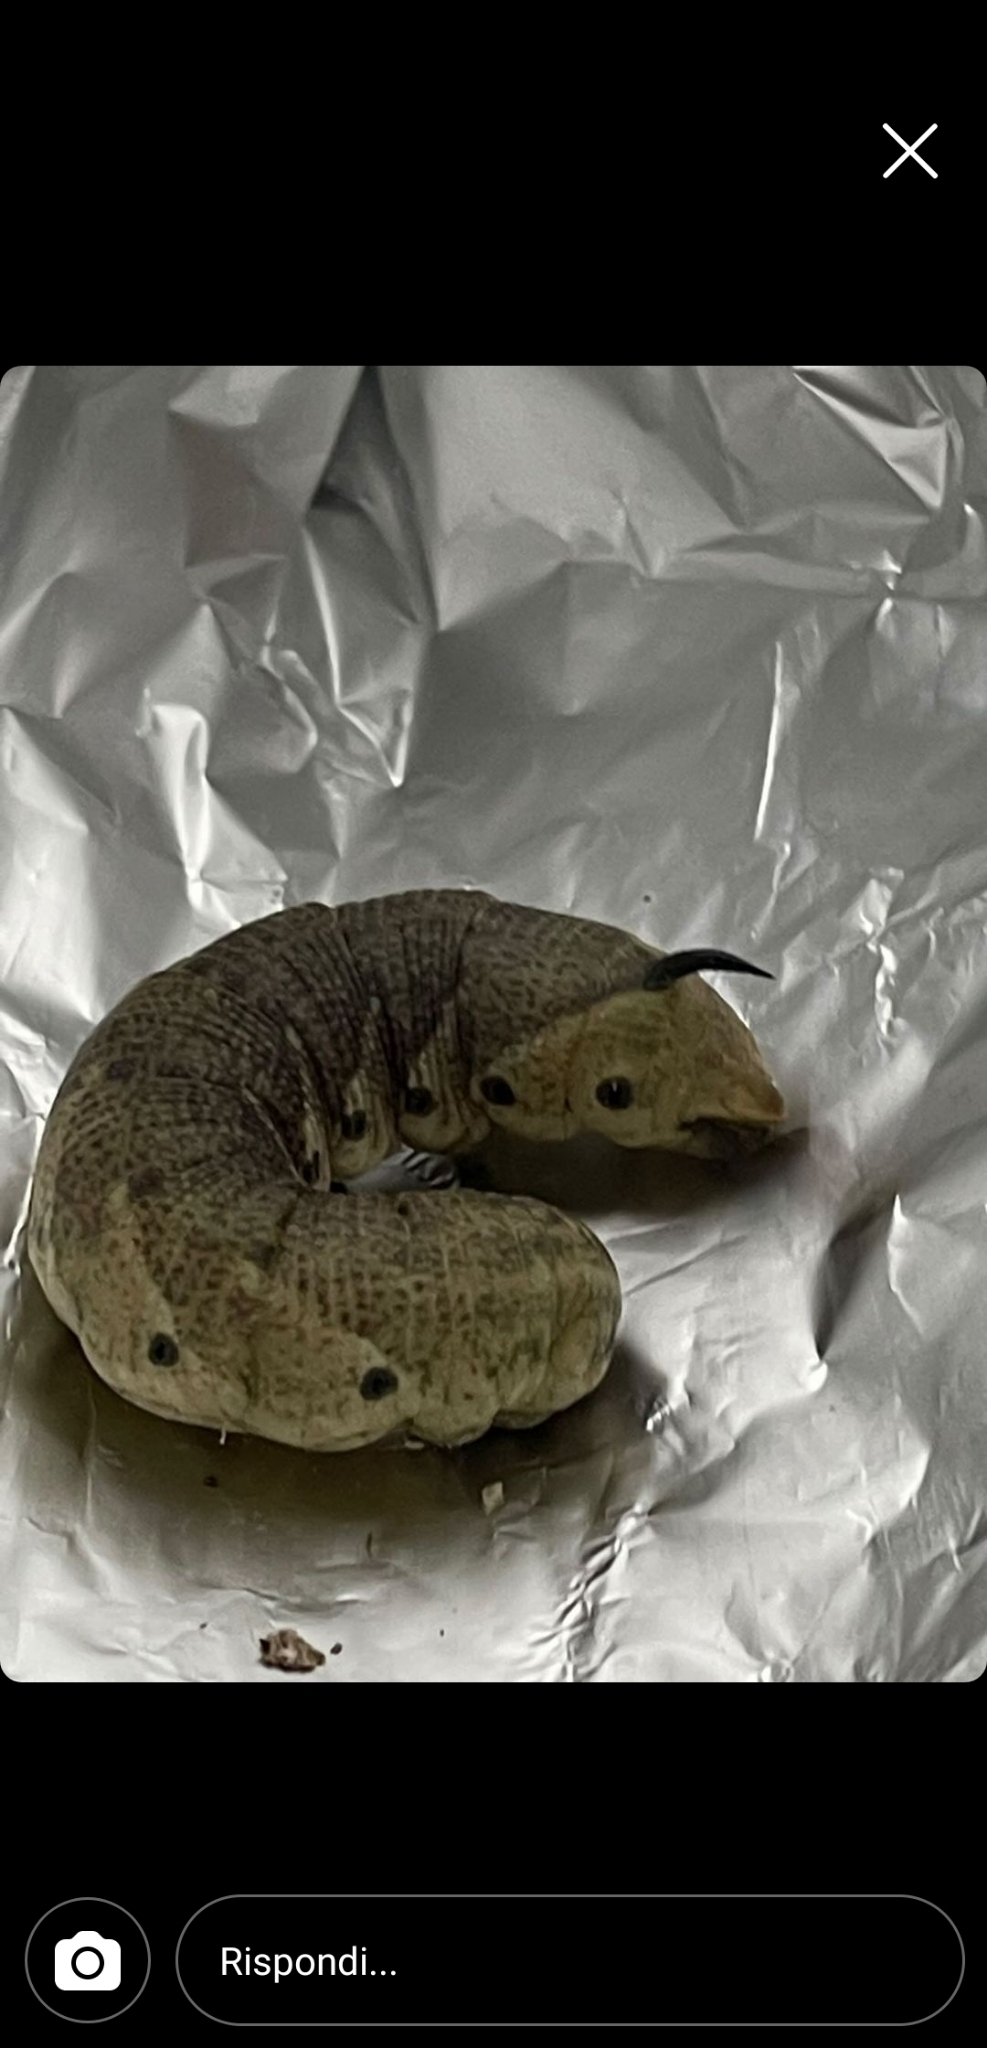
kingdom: Animalia
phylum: Arthropoda
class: Insecta
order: Lepidoptera
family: Sphingidae
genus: Agrius
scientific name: Agrius convolvuli
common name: Convolvulus hawkmoth
